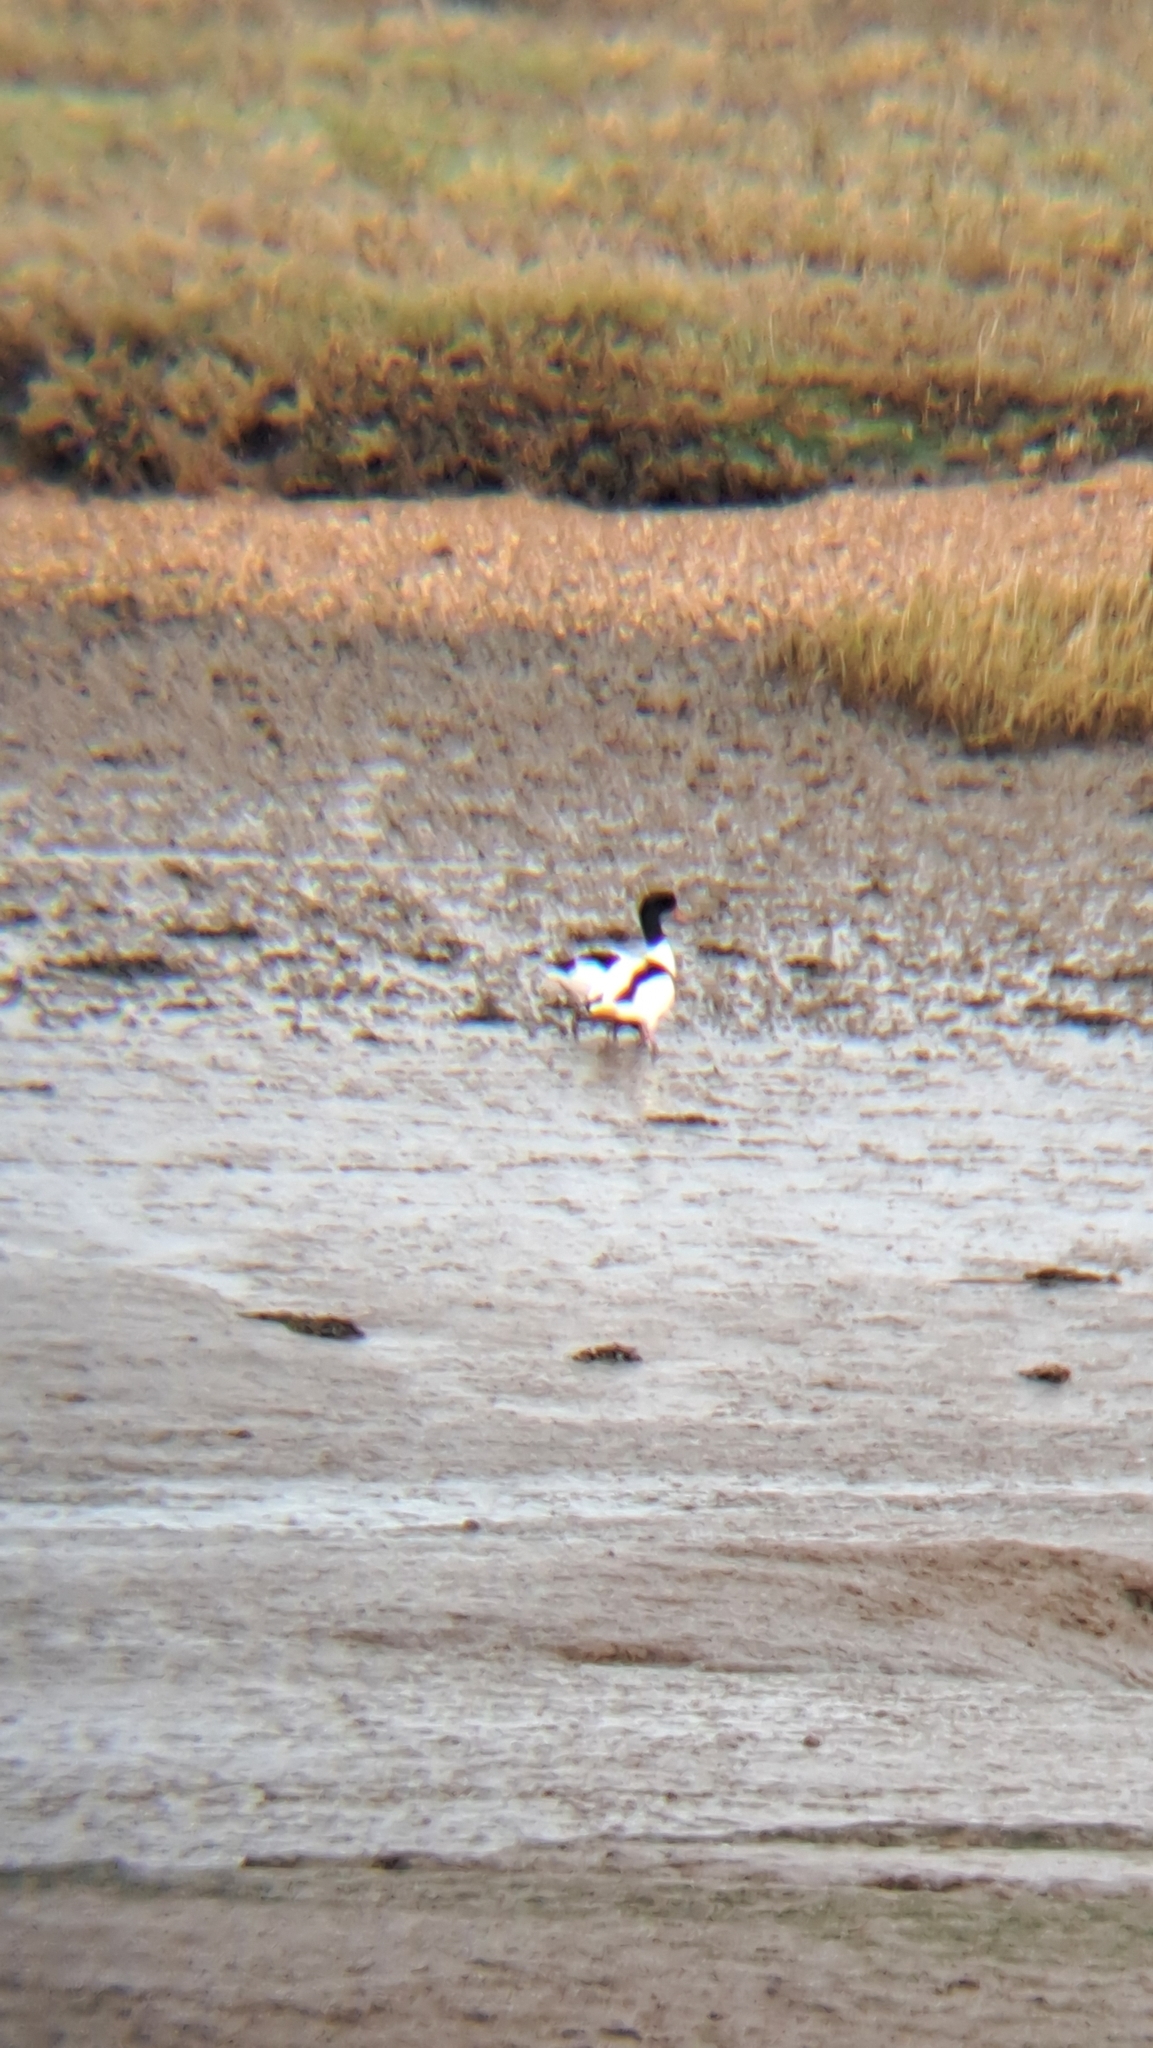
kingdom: Animalia
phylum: Chordata
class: Aves
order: Anseriformes
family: Anatidae
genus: Tadorna
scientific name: Tadorna tadorna
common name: Common shelduck
